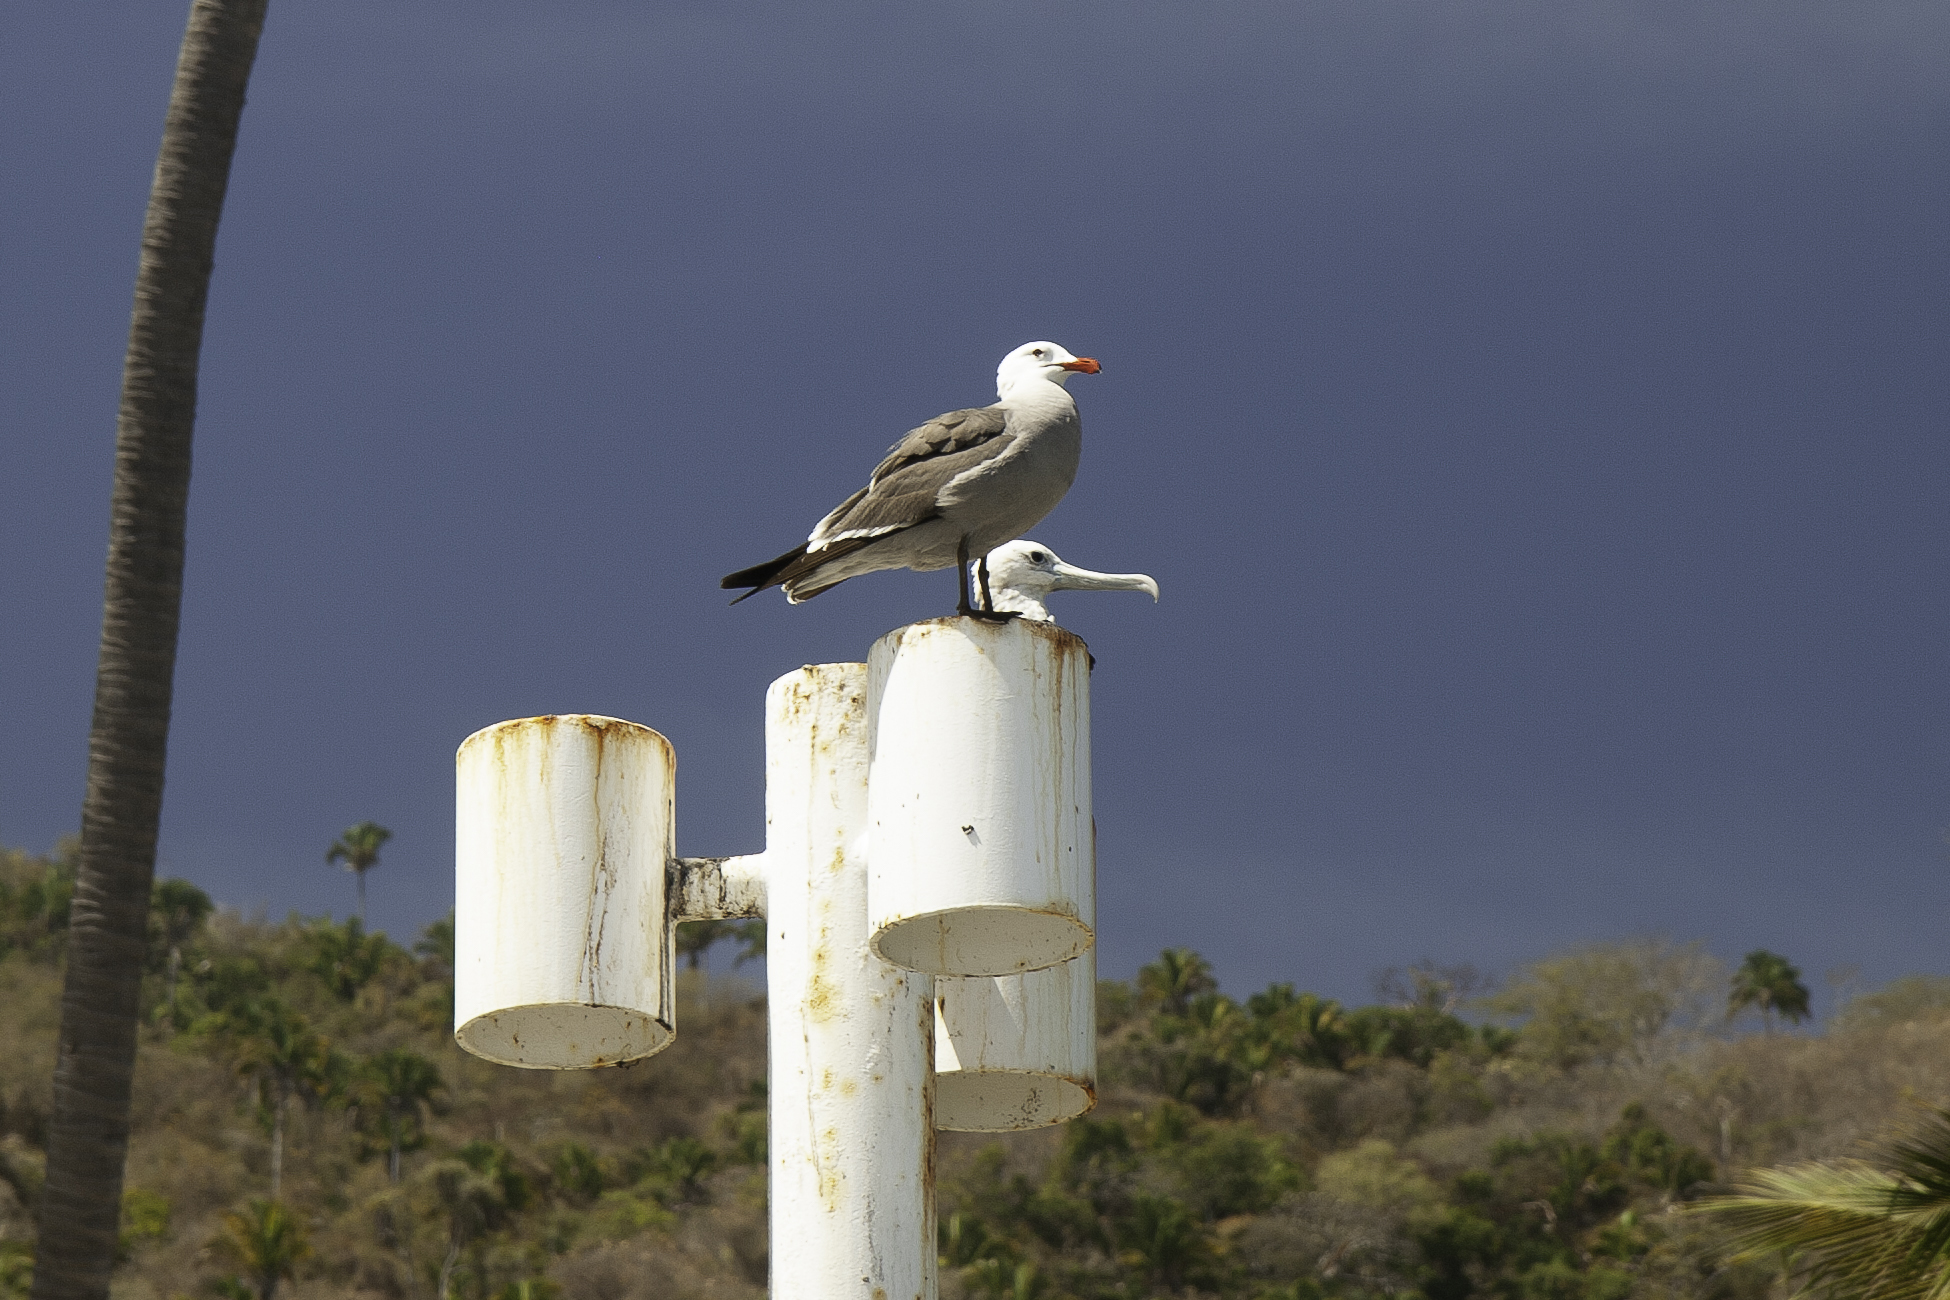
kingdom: Animalia
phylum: Chordata
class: Aves
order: Charadriiformes
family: Laridae
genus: Larus
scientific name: Larus heermanni
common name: Heermann's gull
